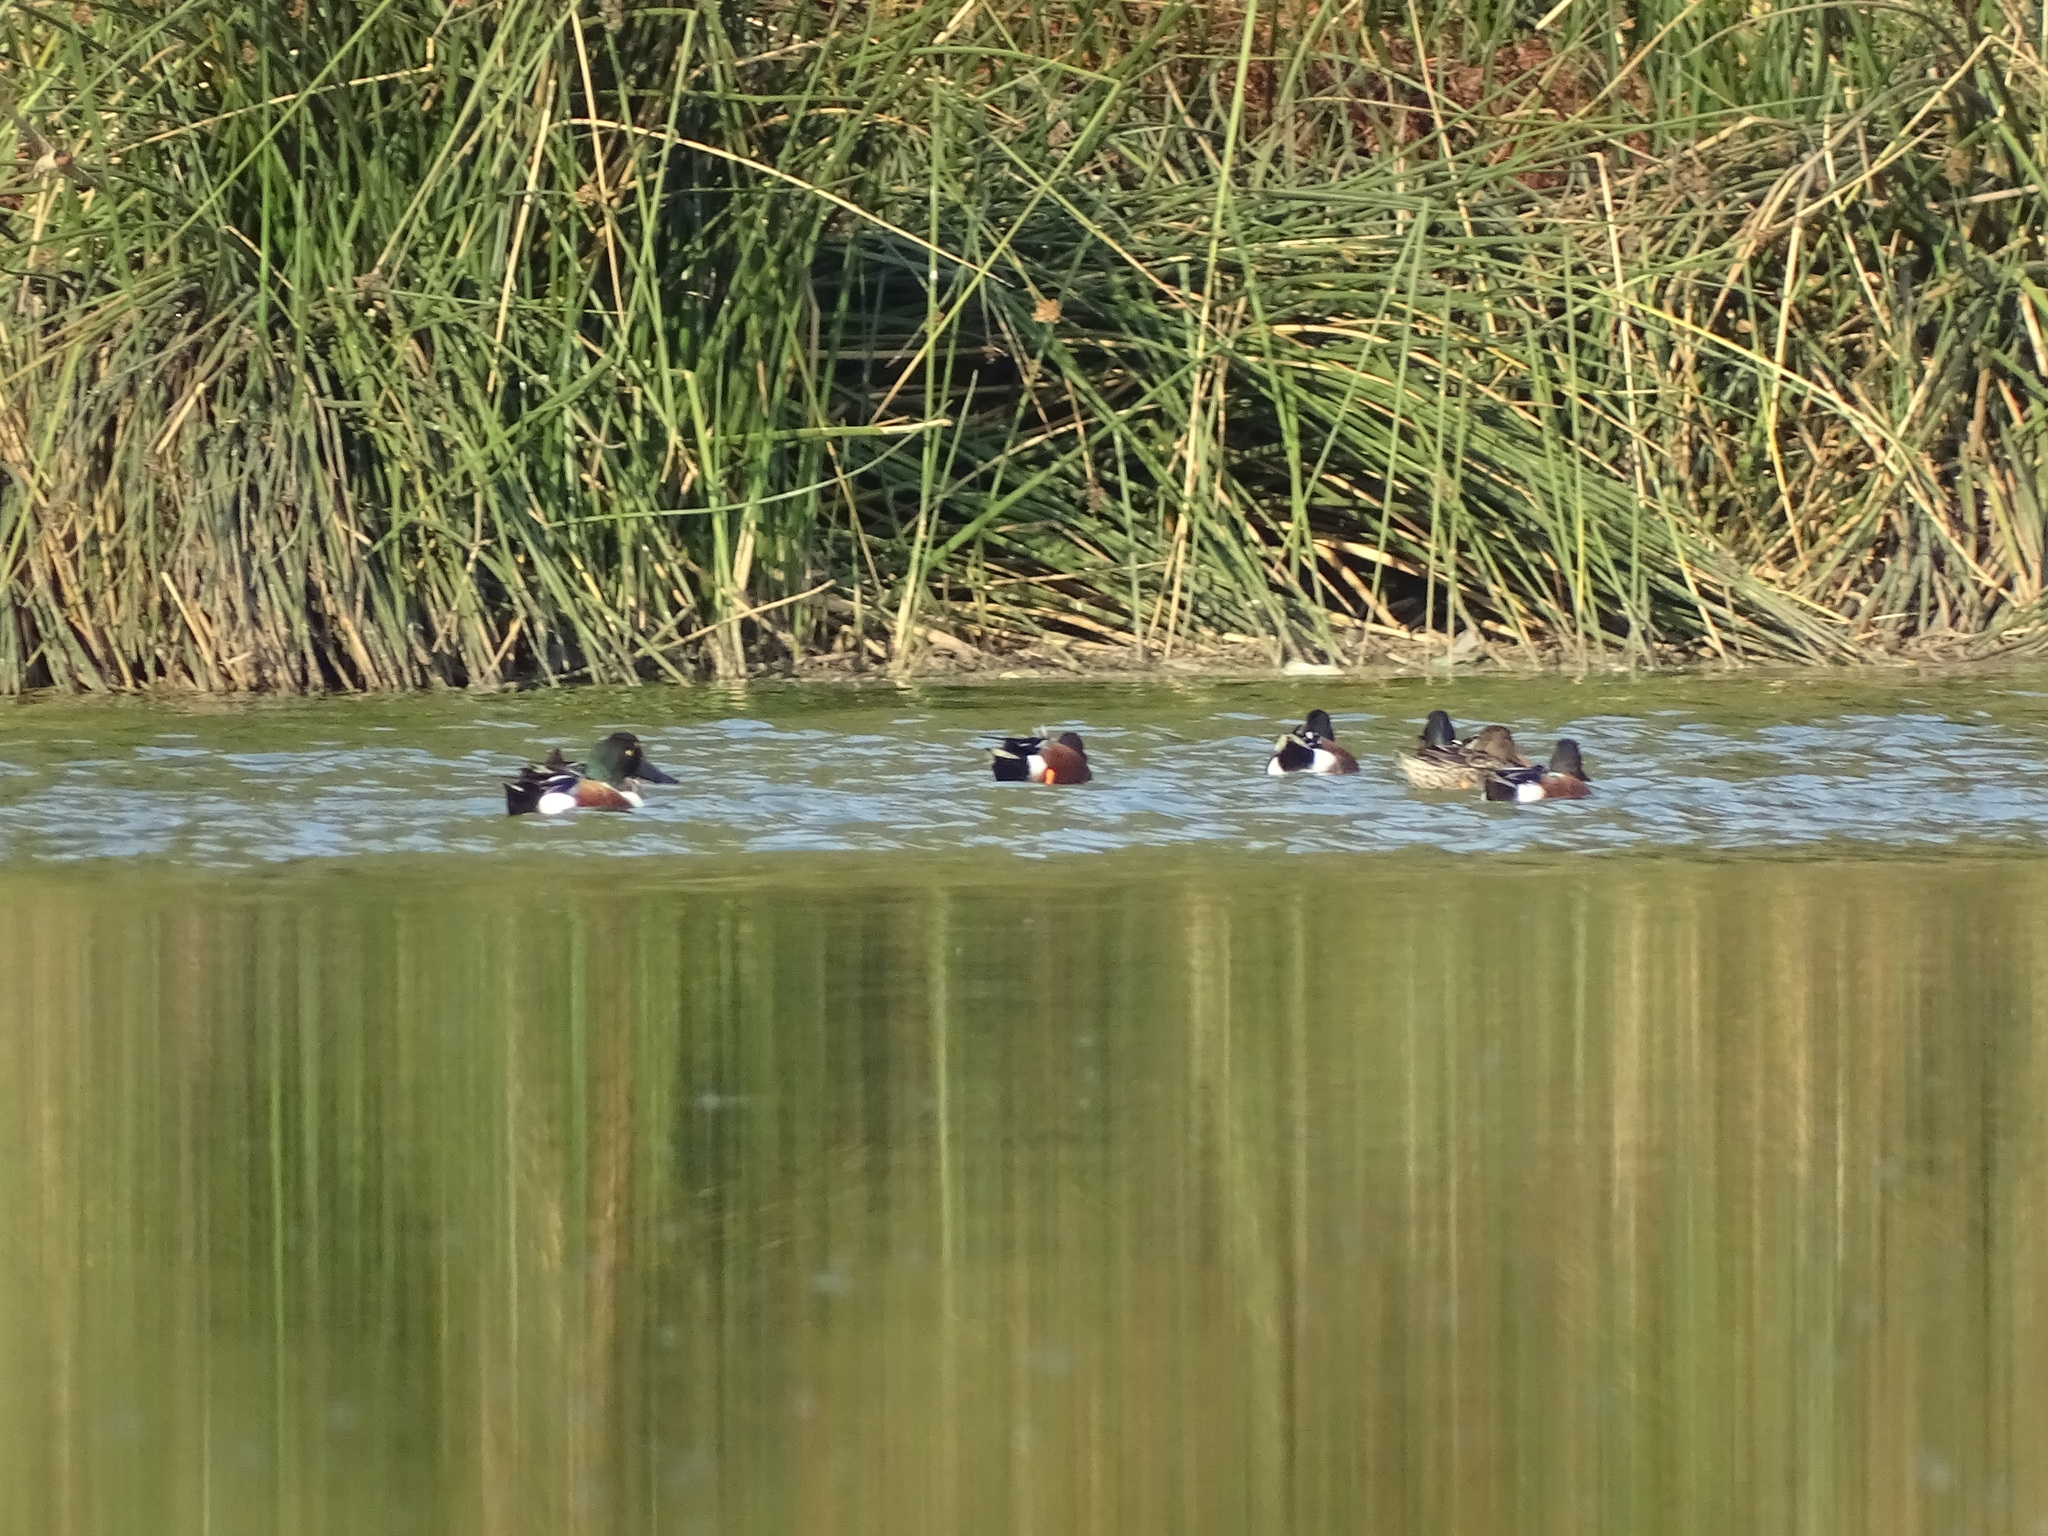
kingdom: Animalia
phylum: Chordata
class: Aves
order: Anseriformes
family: Anatidae
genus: Spatula
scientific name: Spatula clypeata
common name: Northern shoveler
